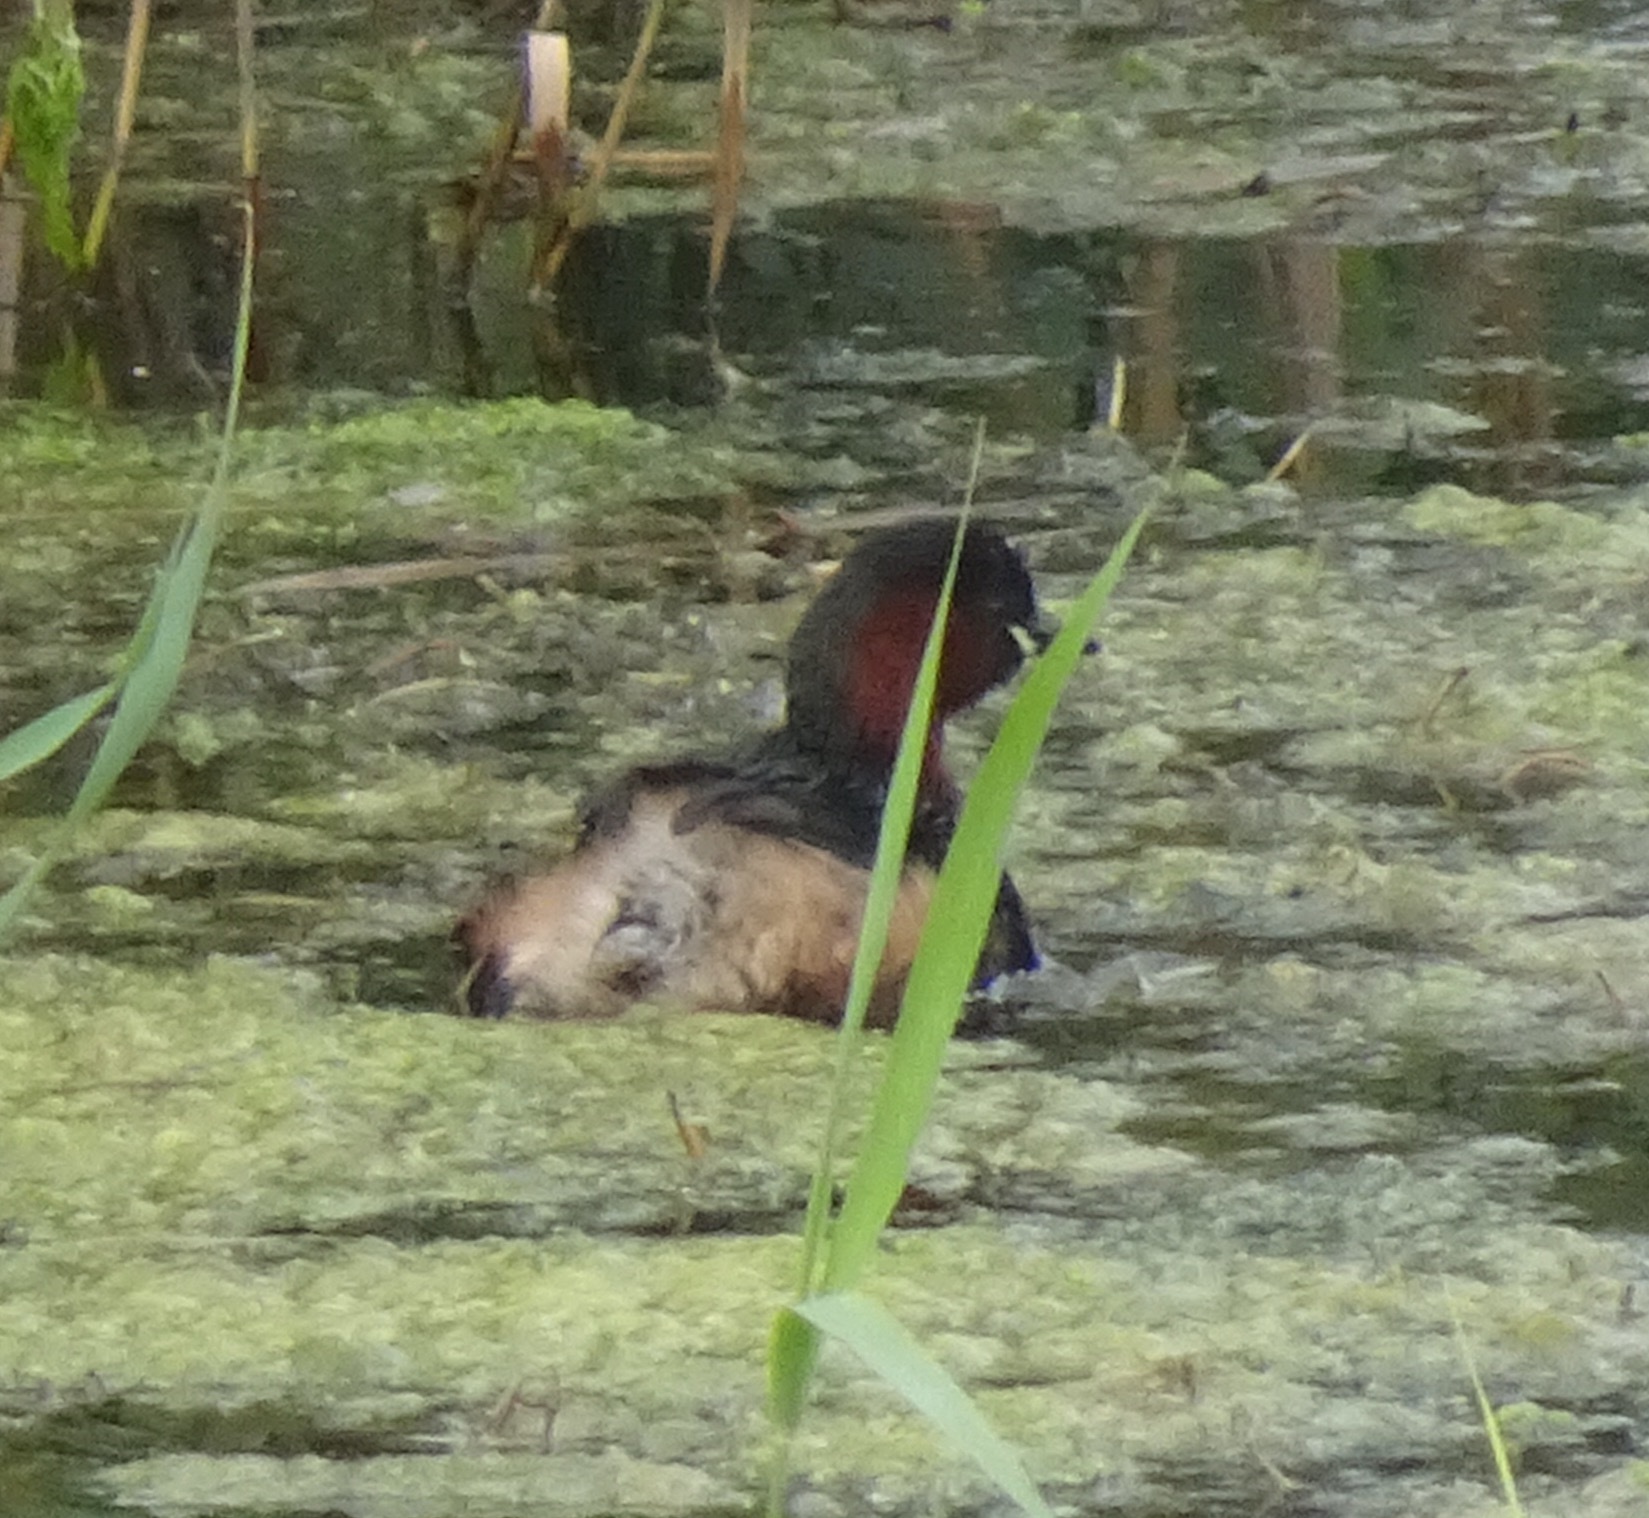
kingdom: Animalia
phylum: Chordata
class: Aves
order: Podicipediformes
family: Podicipedidae
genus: Tachybaptus
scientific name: Tachybaptus ruficollis
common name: Little grebe
